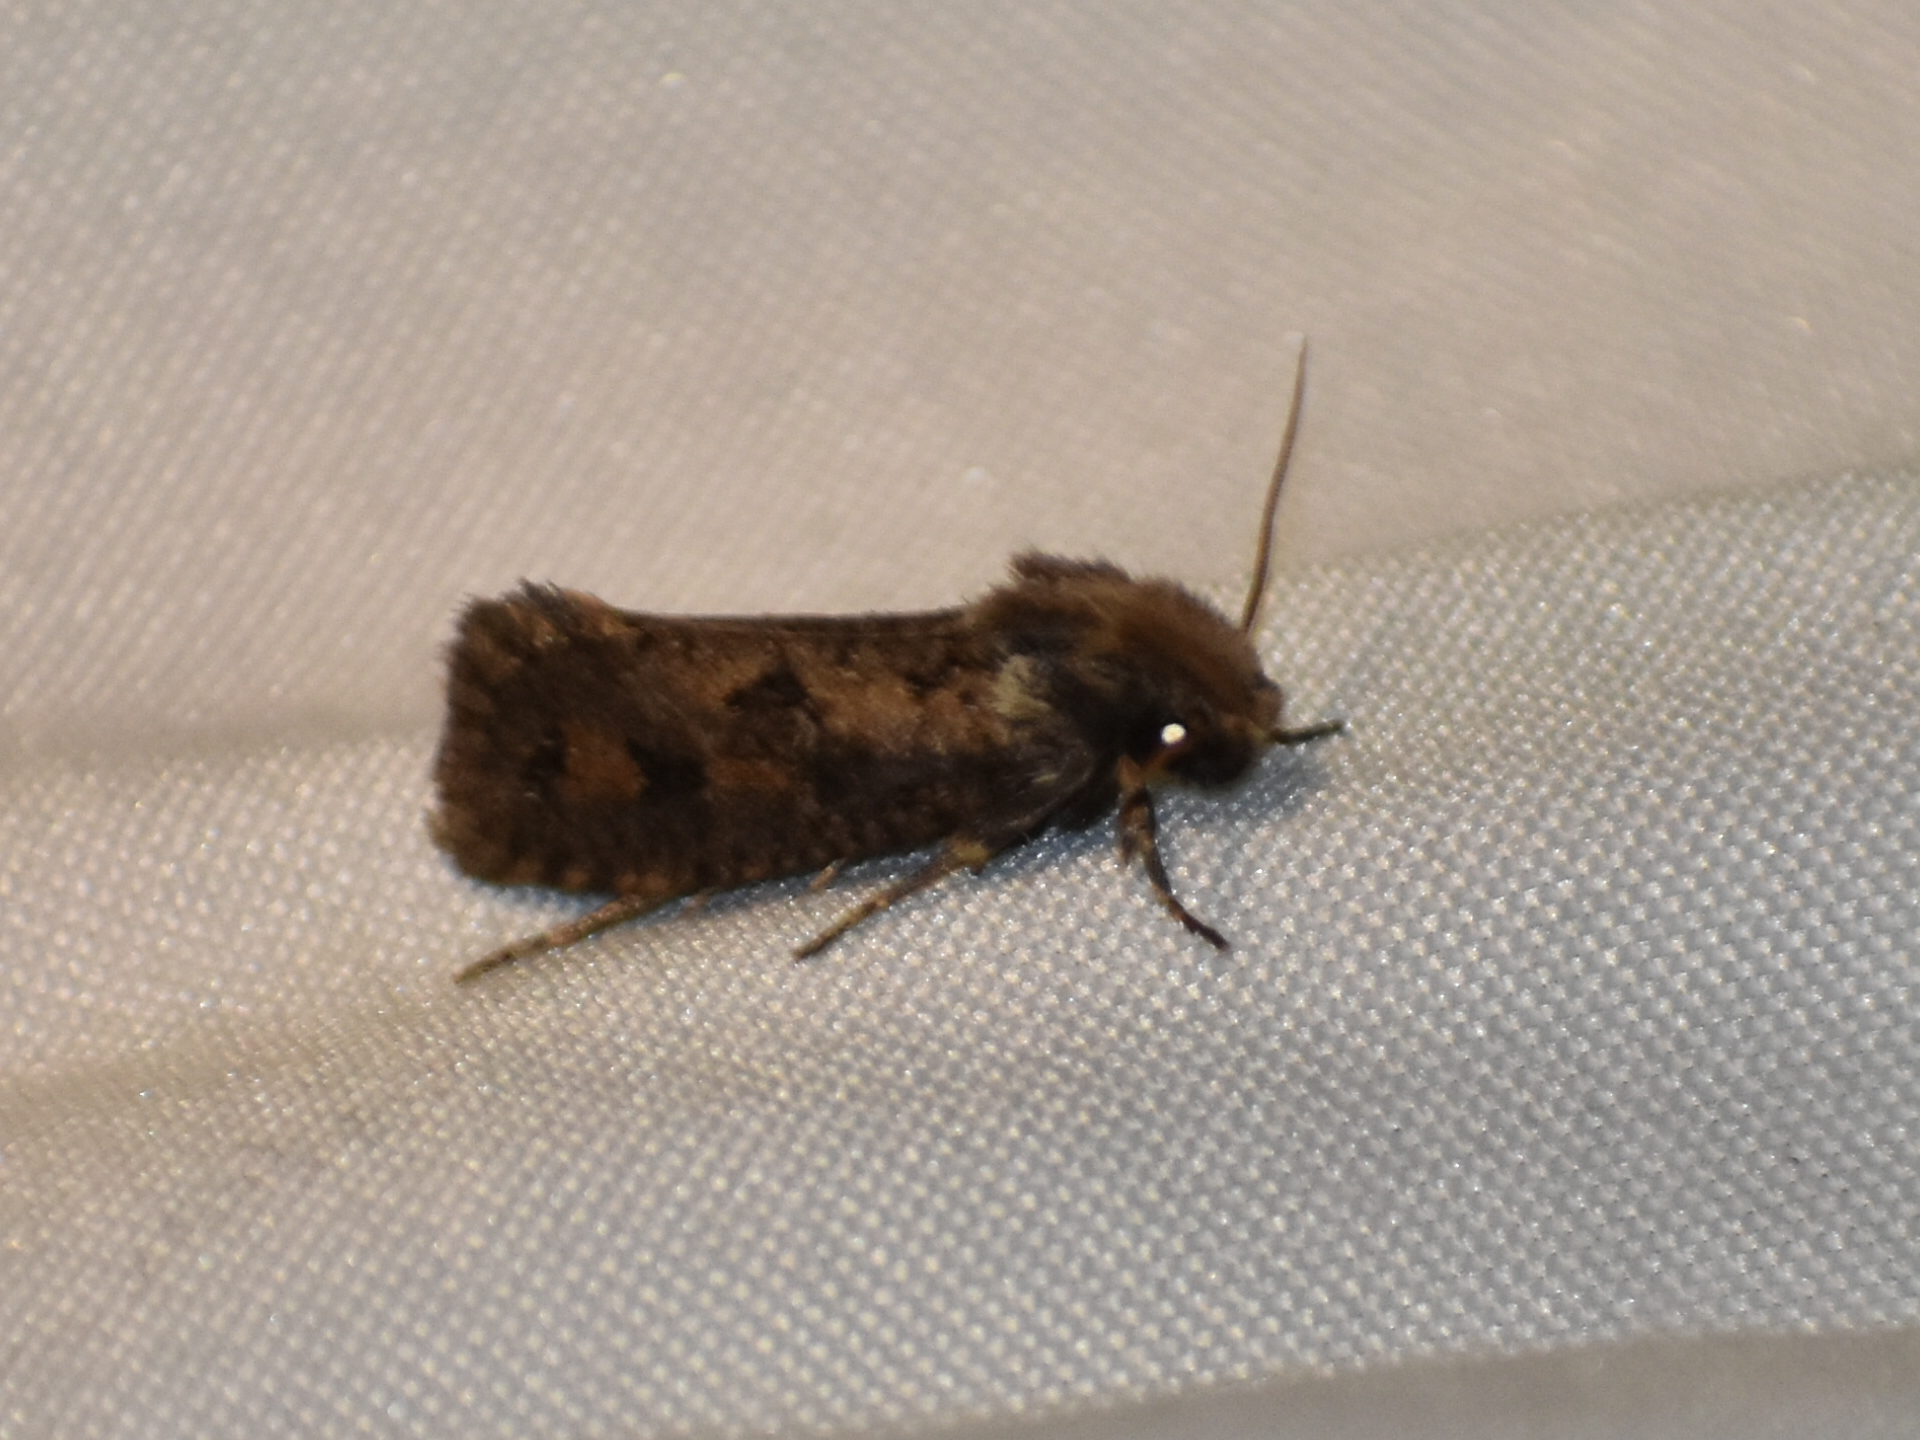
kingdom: Animalia
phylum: Arthropoda
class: Insecta
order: Lepidoptera
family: Tineidae
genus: Acrolophus
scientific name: Acrolophus popeanella
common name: Clemens' grass tubeworm moth
